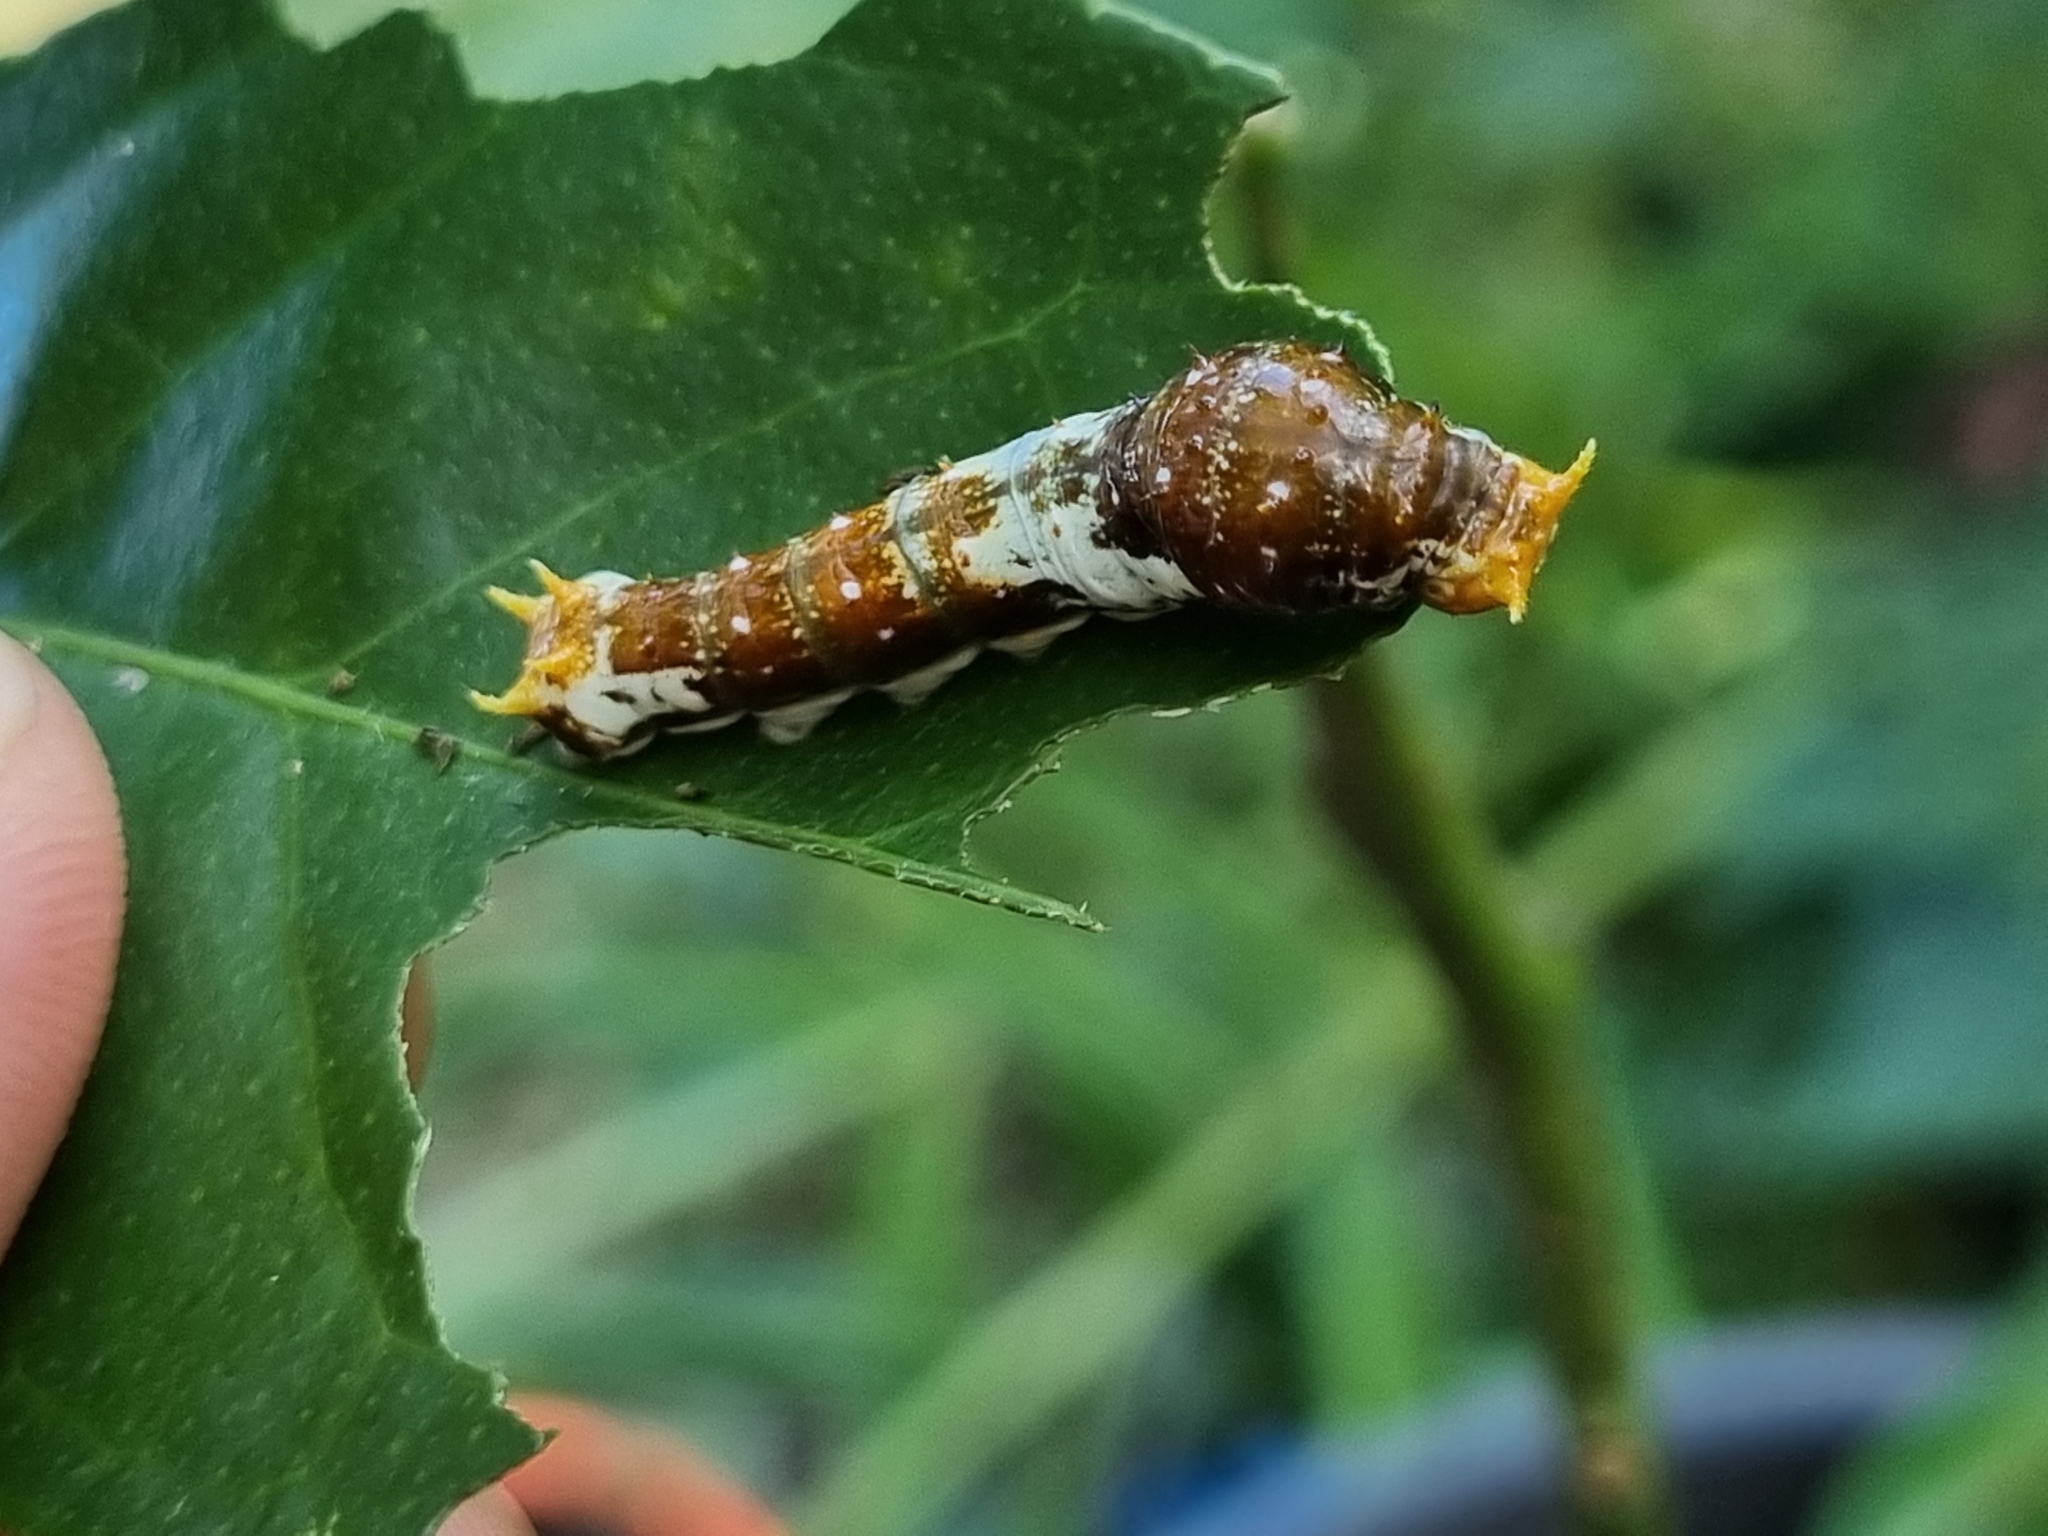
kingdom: Animalia
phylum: Arthropoda
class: Insecta
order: Lepidoptera
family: Lycaenidae
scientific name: Lycaenidae
